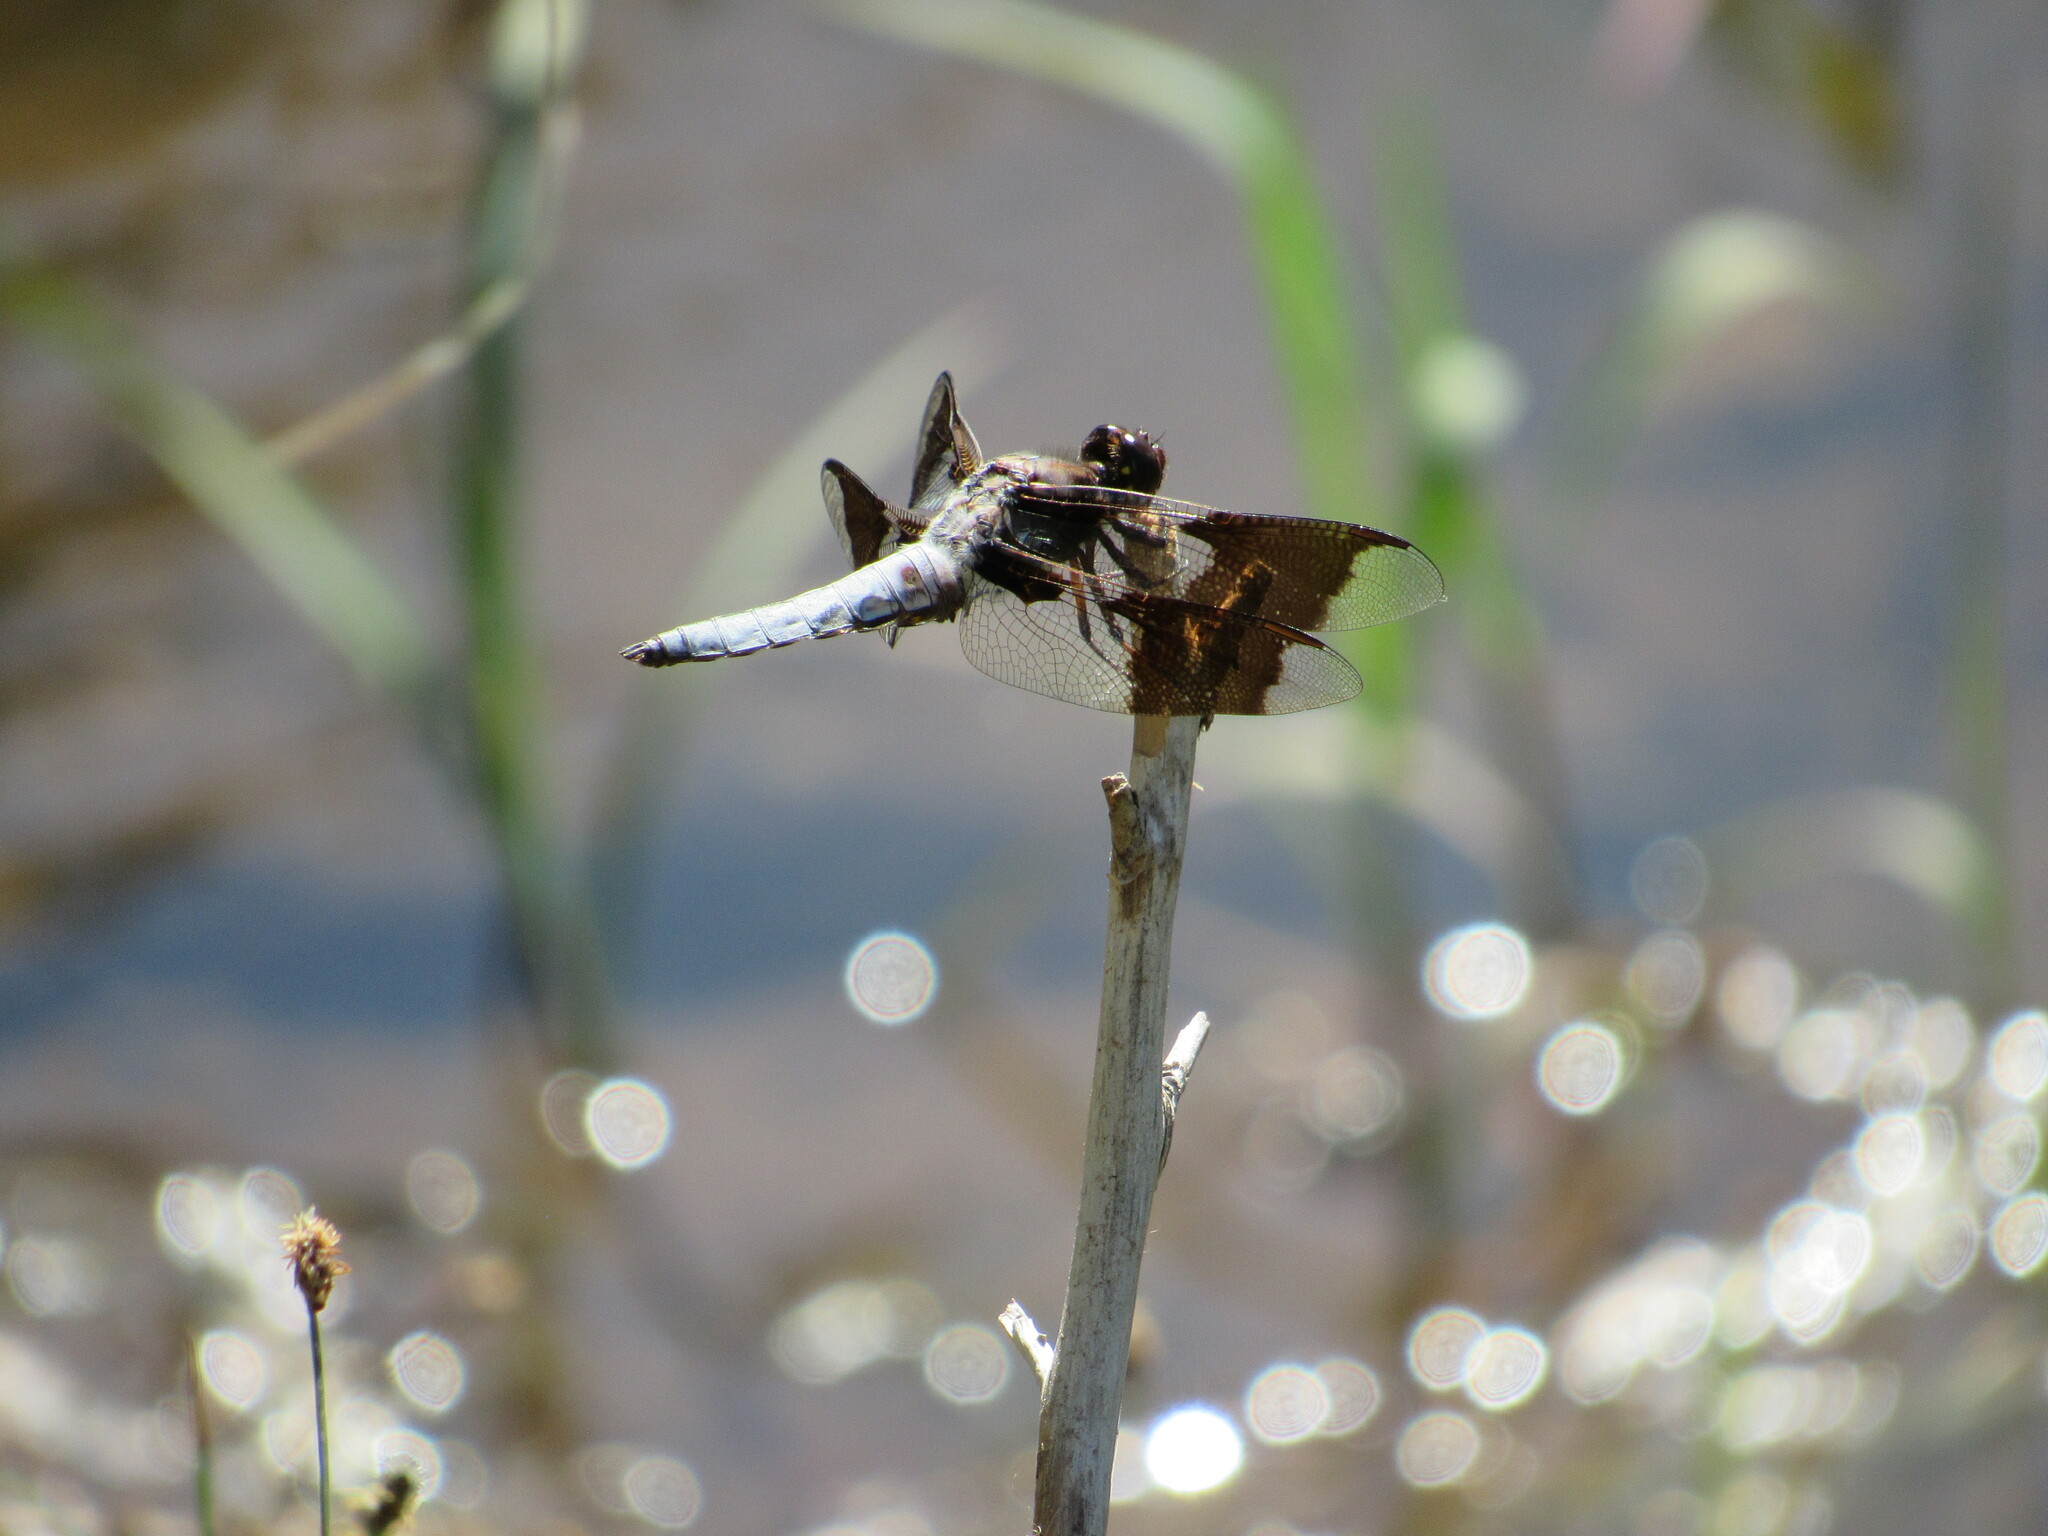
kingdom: Animalia
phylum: Arthropoda
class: Insecta
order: Odonata
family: Libellulidae
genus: Plathemis
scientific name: Plathemis lydia
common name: Common whitetail
